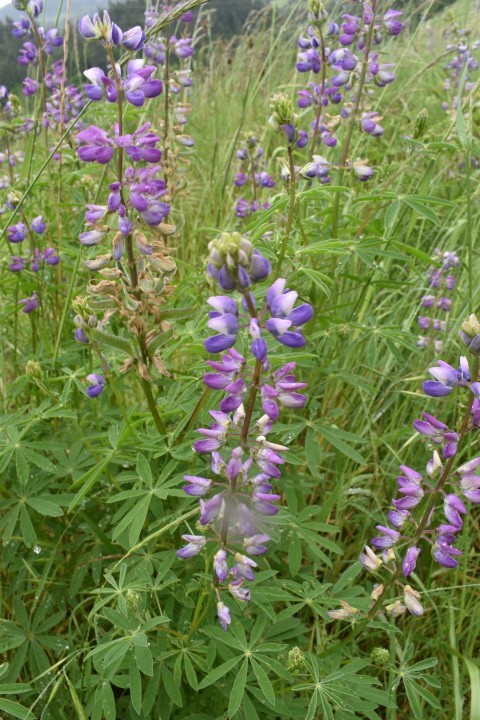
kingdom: Plantae
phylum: Tracheophyta
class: Magnoliopsida
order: Fabales
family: Fabaceae
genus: Lupinus
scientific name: Lupinus rivularis
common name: Riverbank lupine
